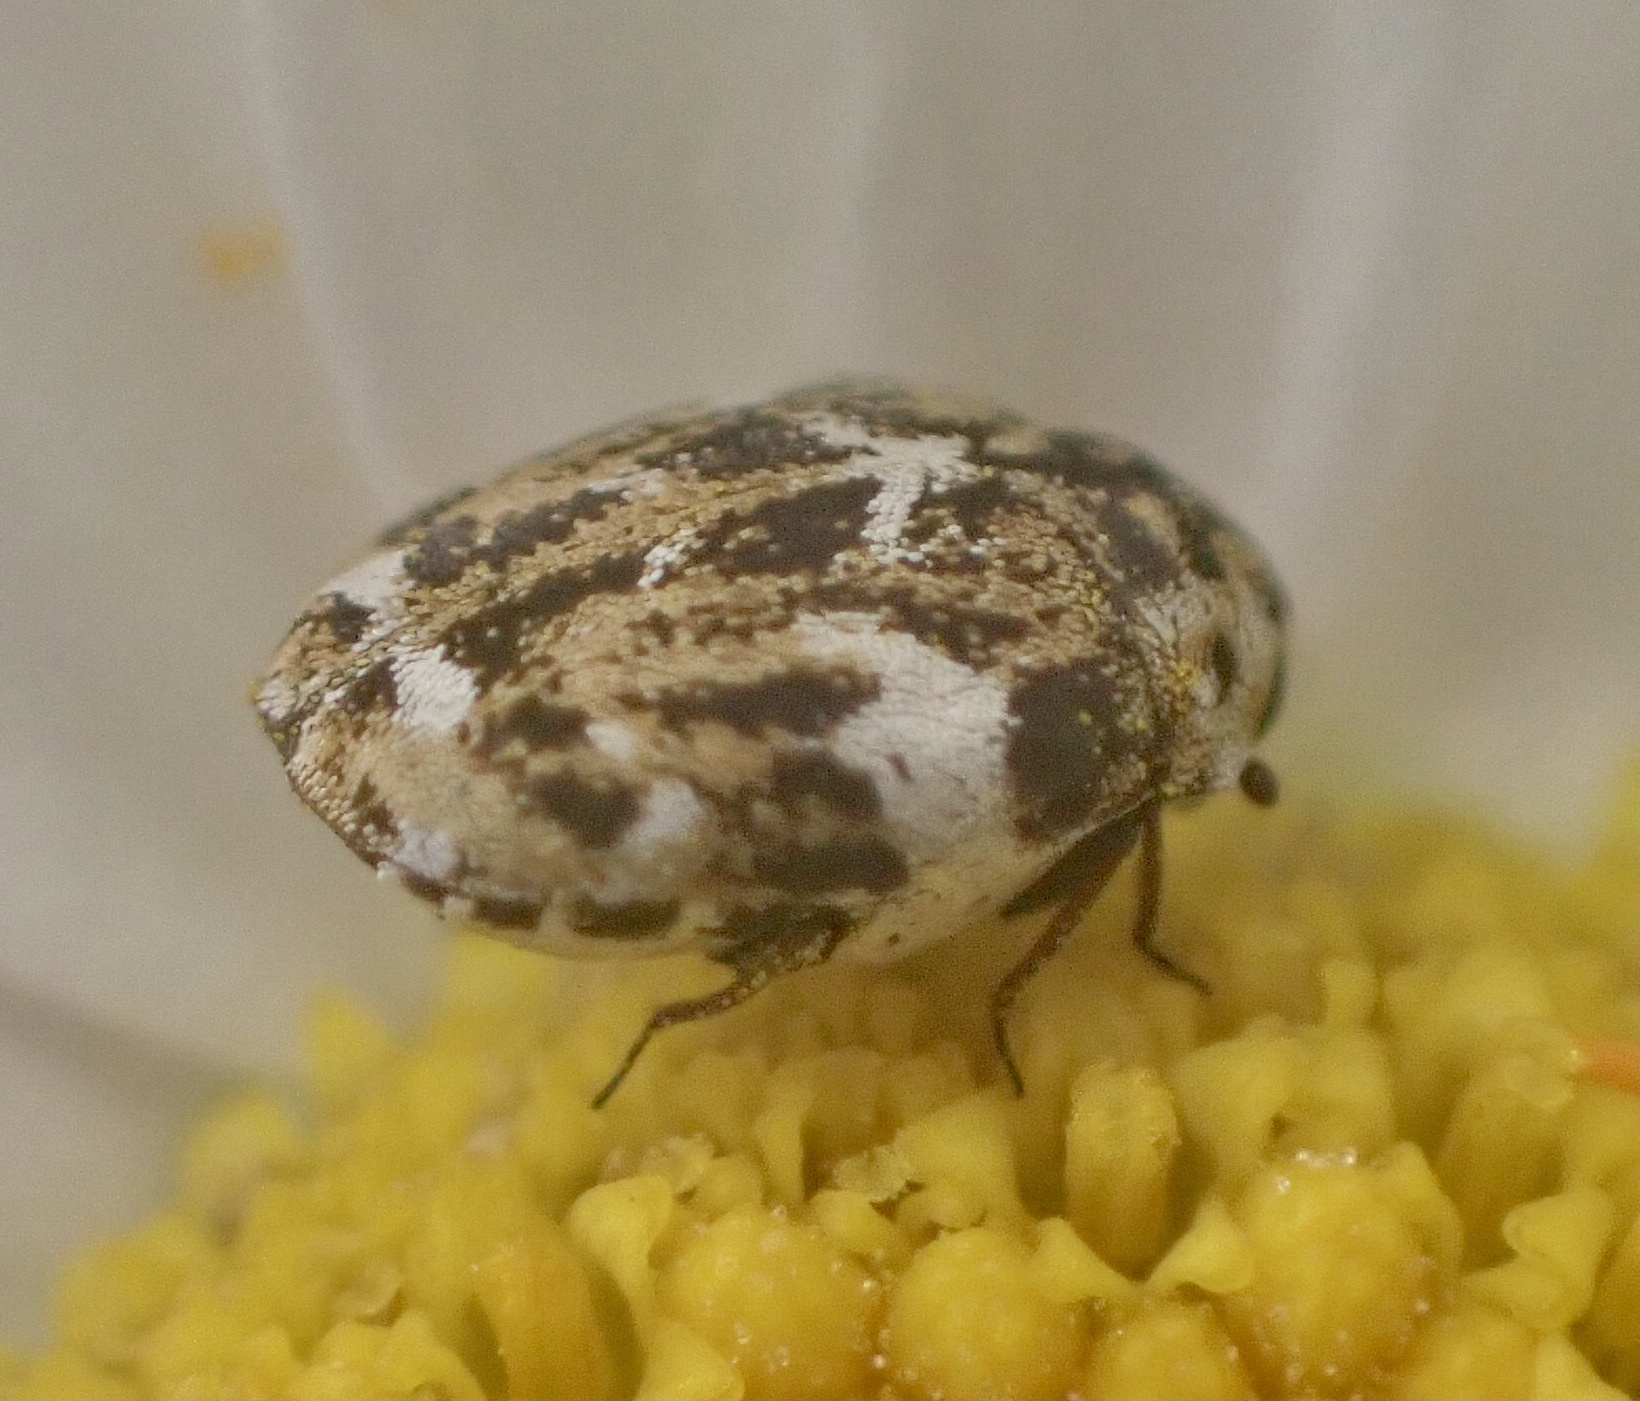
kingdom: Animalia
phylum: Arthropoda
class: Insecta
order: Coleoptera
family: Dermestidae
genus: Anthrenus
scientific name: Anthrenus angustefasciatus
